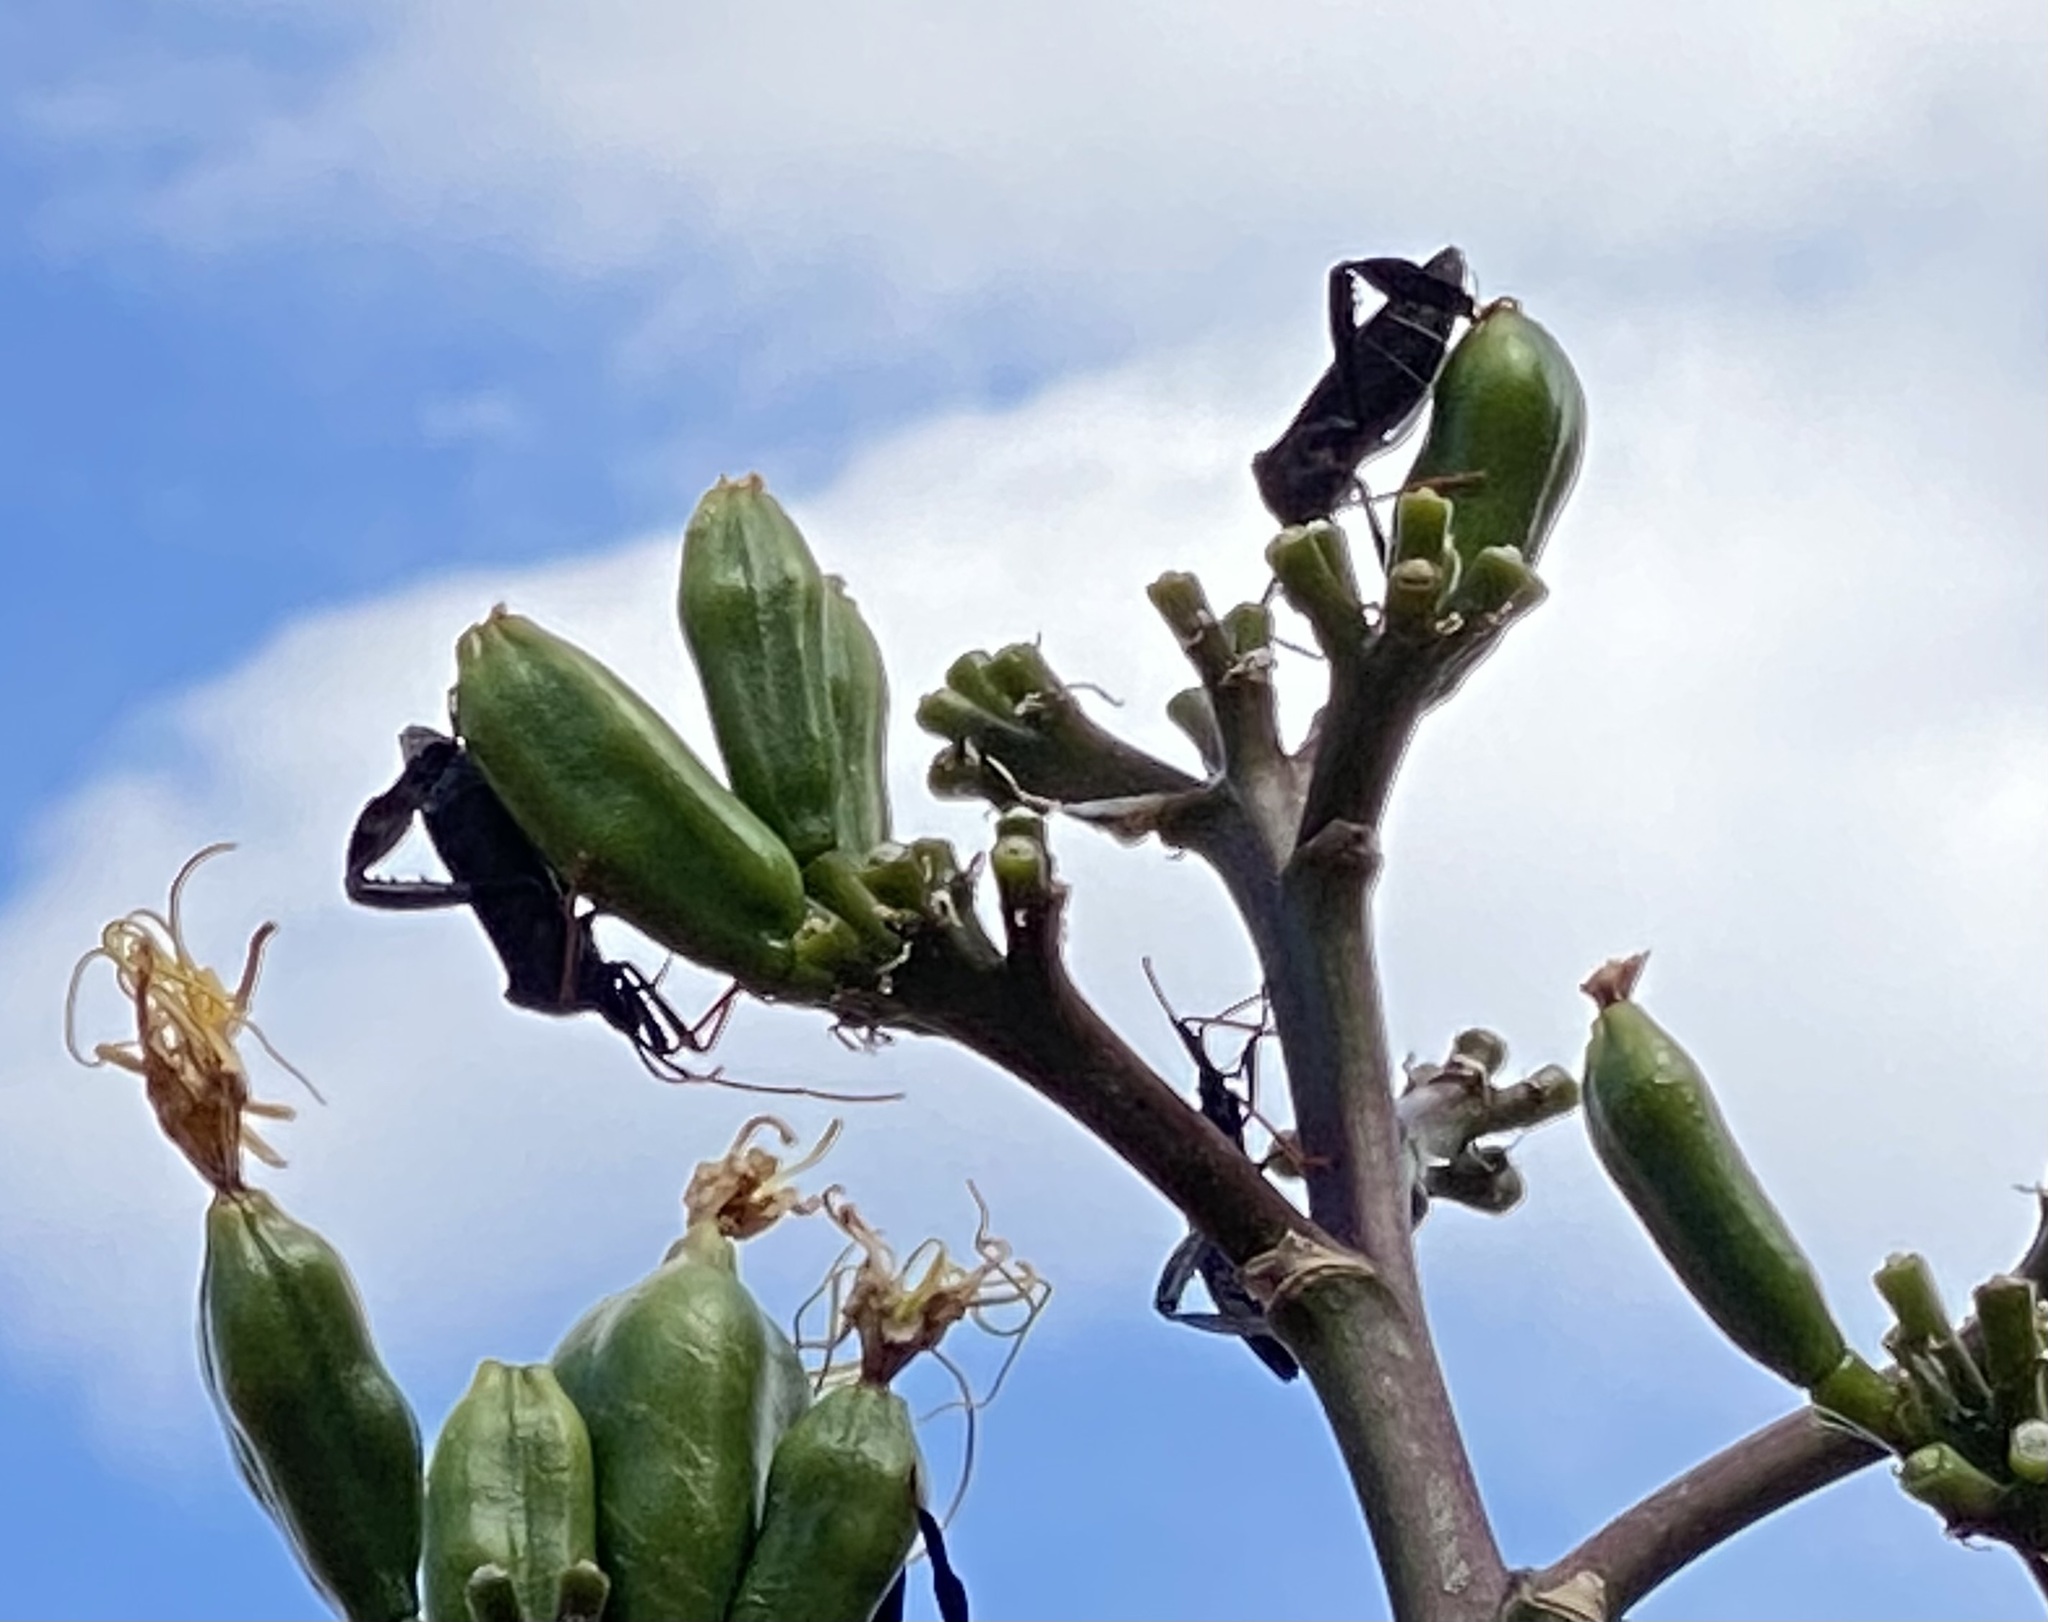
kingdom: Animalia
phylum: Arthropoda
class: Insecta
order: Hemiptera
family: Coreidae
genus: Acanthocephala
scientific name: Acanthocephala thomasi
